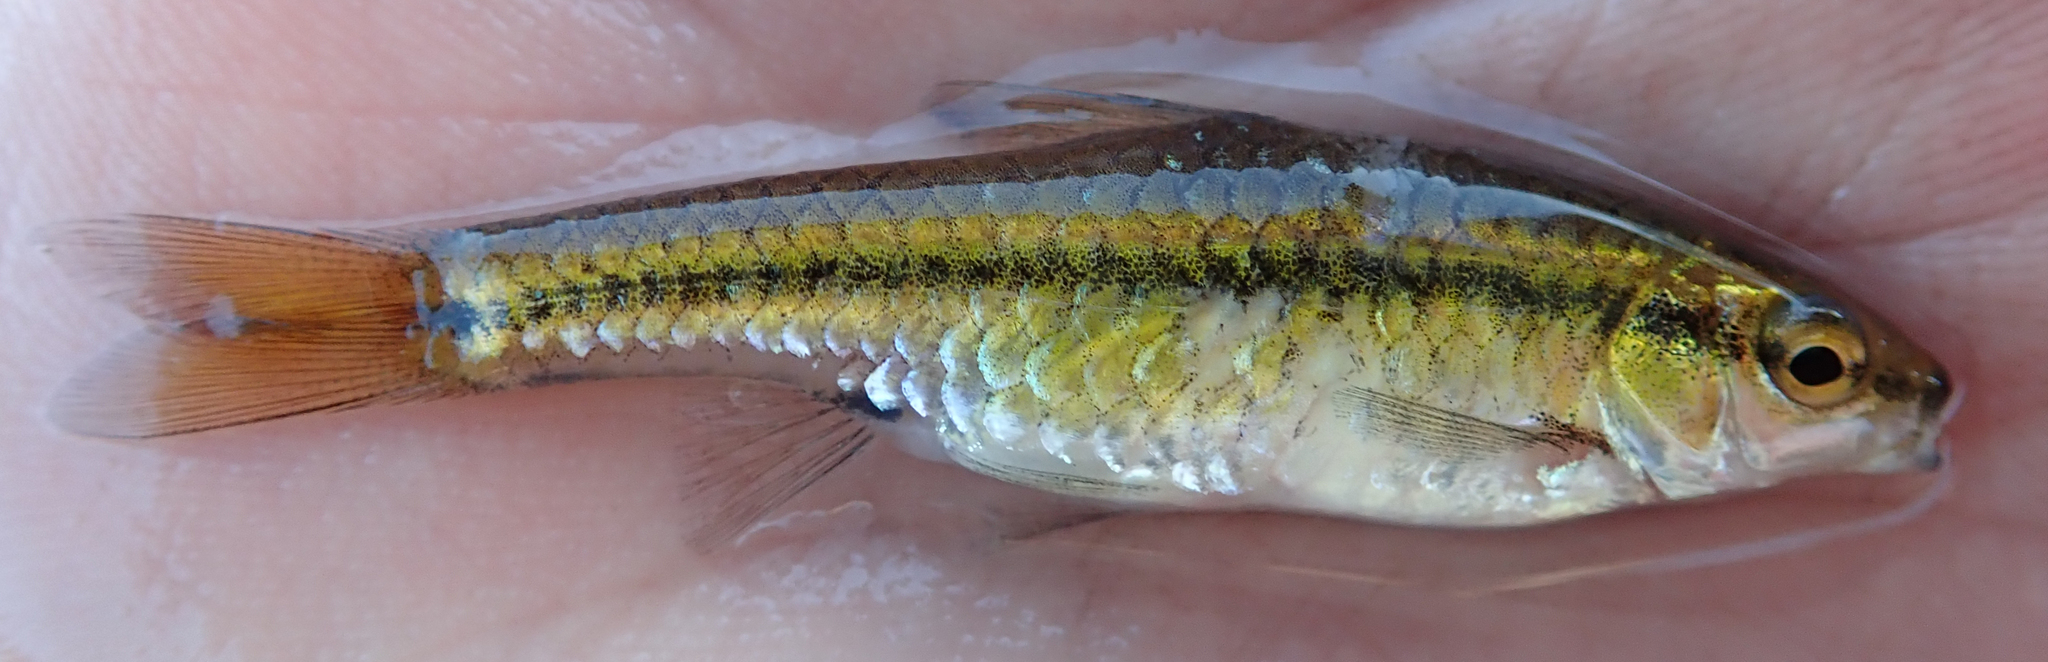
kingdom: Animalia
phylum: Chordata
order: Cypriniformes
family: Cyprinidae
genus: Enteromius
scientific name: Enteromius eutaenia
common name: Orangefin barb
